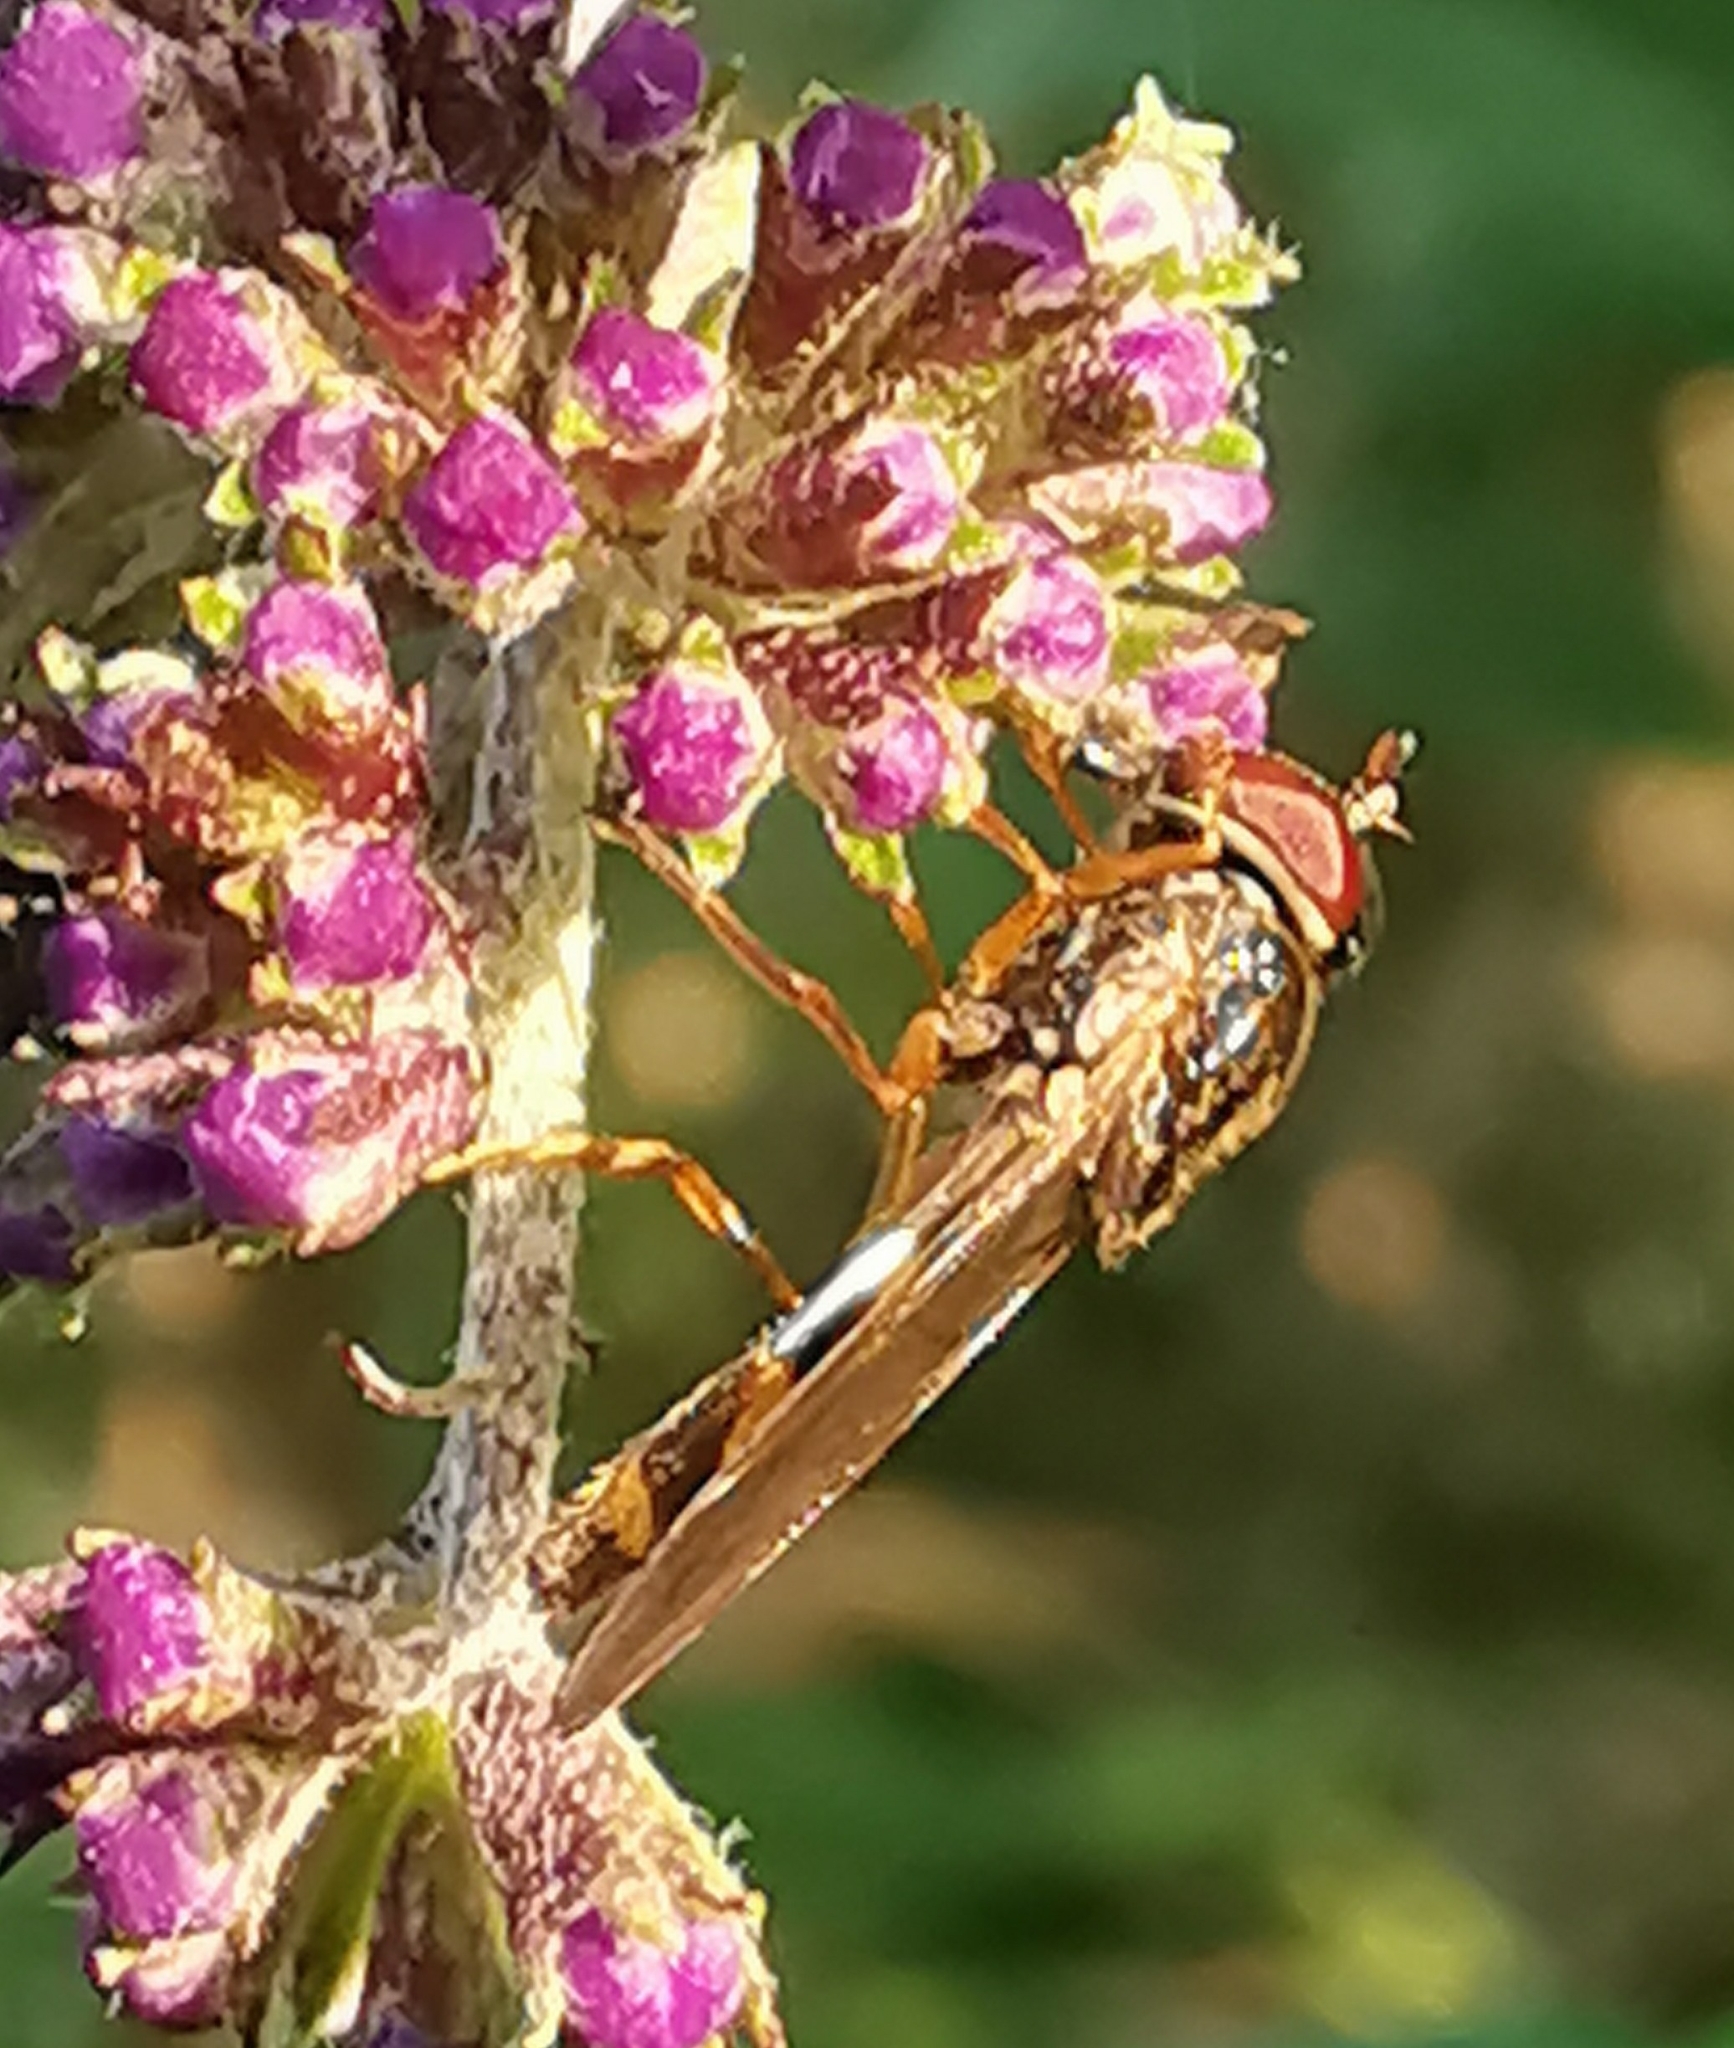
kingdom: Animalia
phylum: Arthropoda
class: Insecta
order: Diptera
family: Syrphidae
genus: Melanostoma
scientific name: Melanostoma scalare
